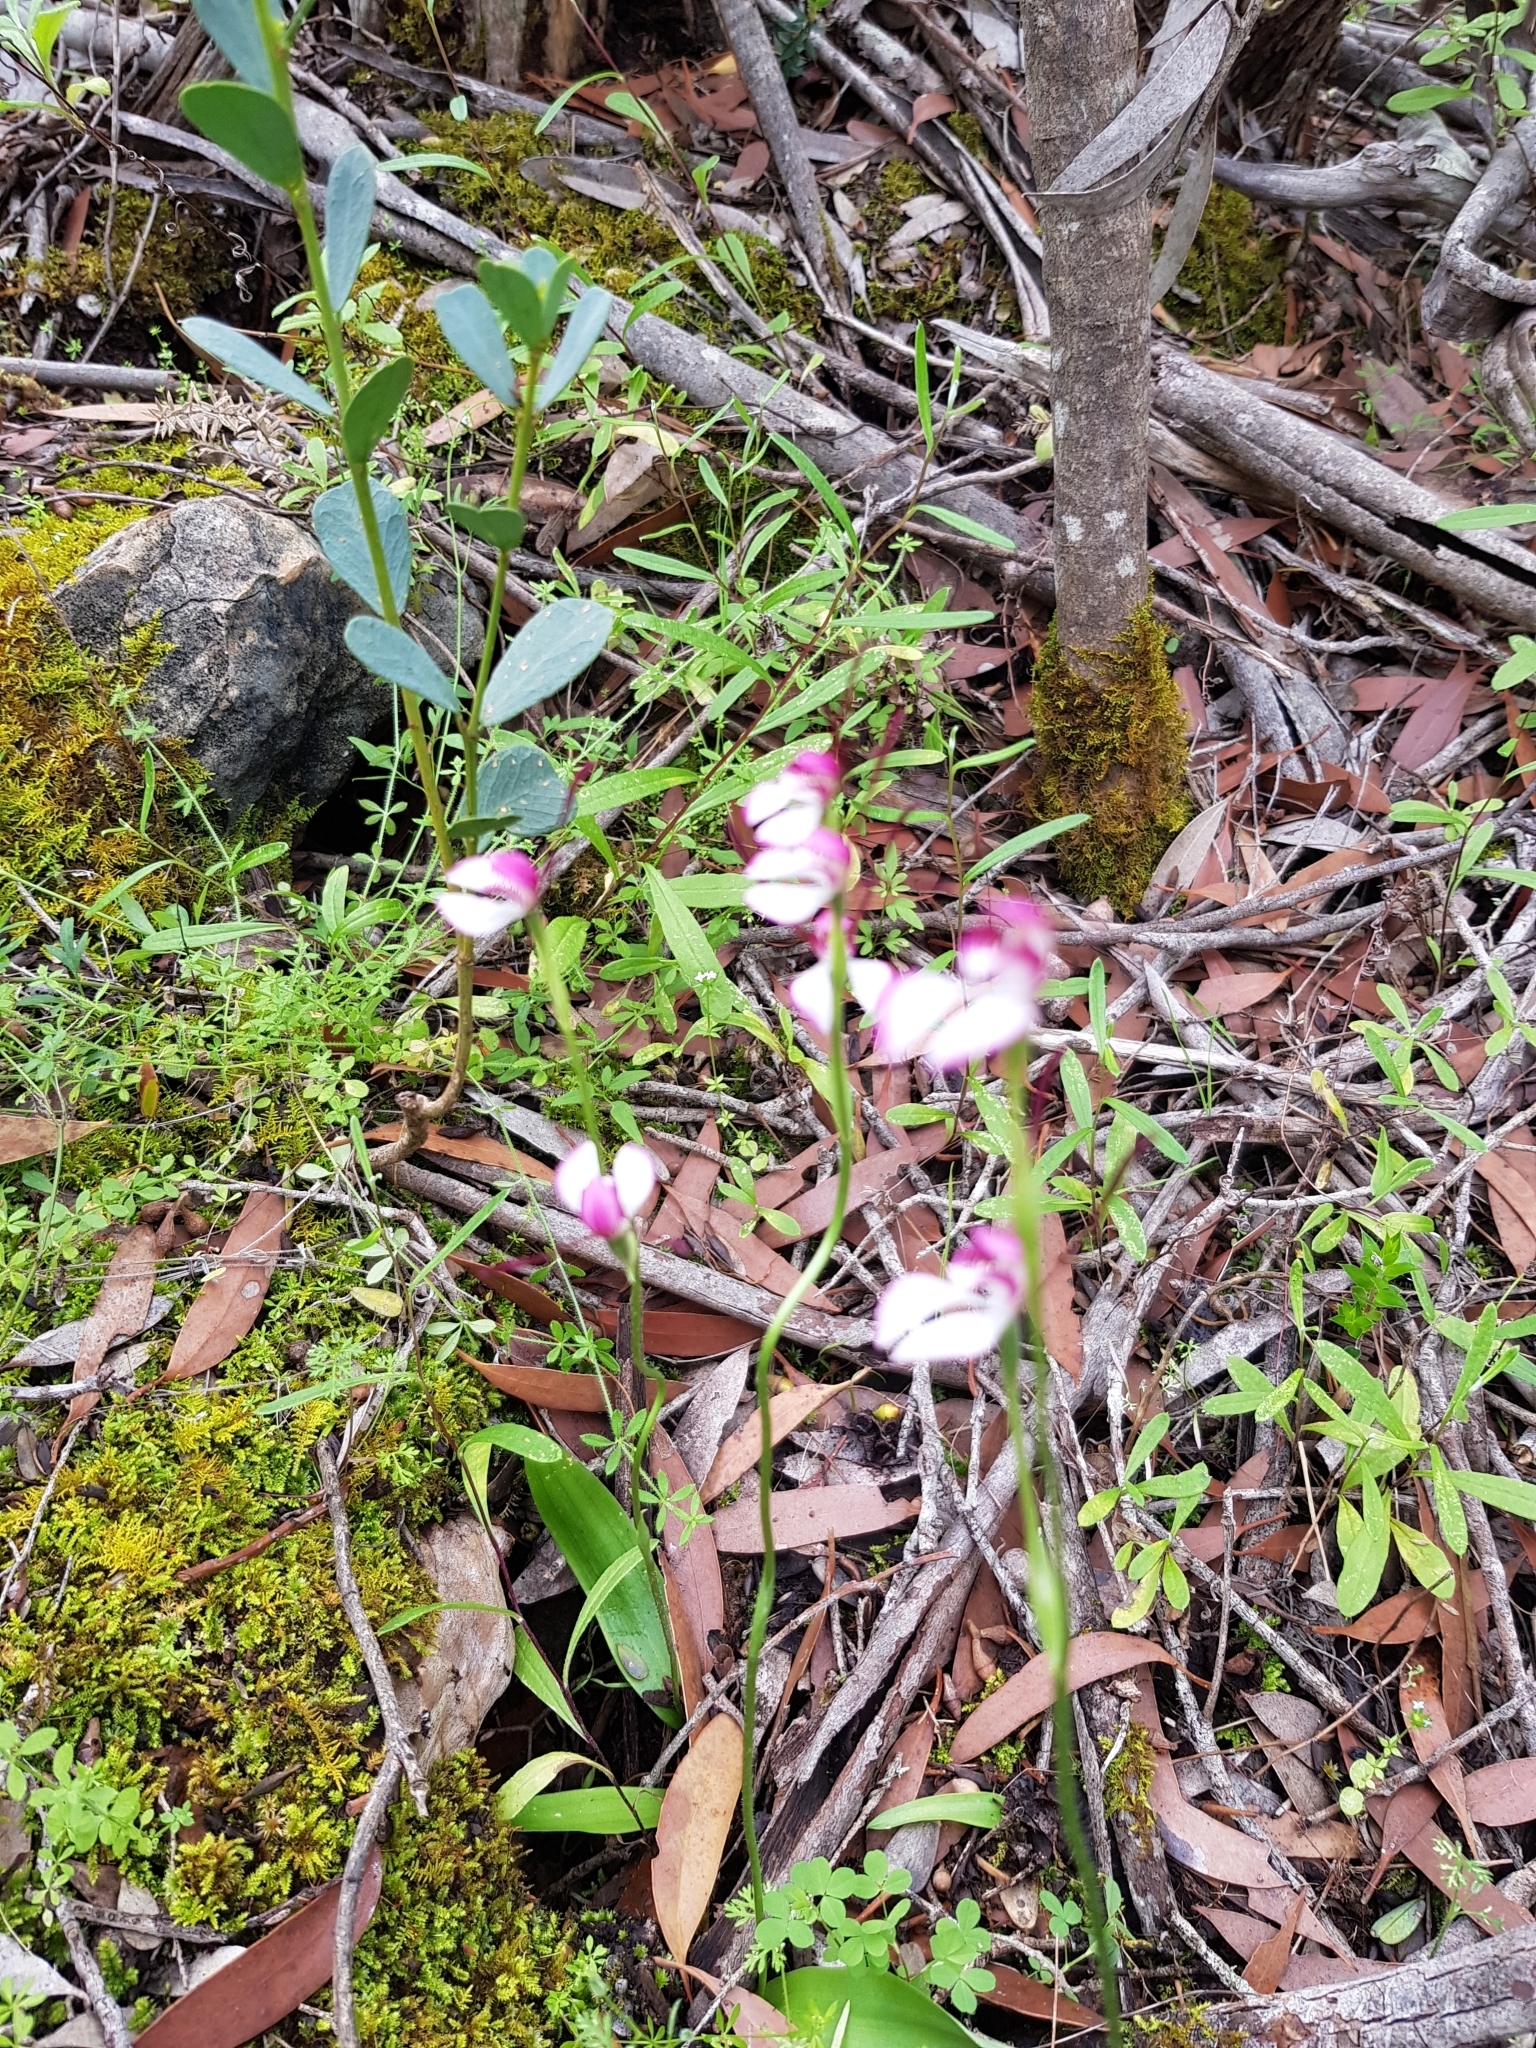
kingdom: Plantae
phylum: Tracheophyta
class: Liliopsida
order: Asparagales
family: Orchidaceae
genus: Leptoceras
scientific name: Leptoceras menziesii
